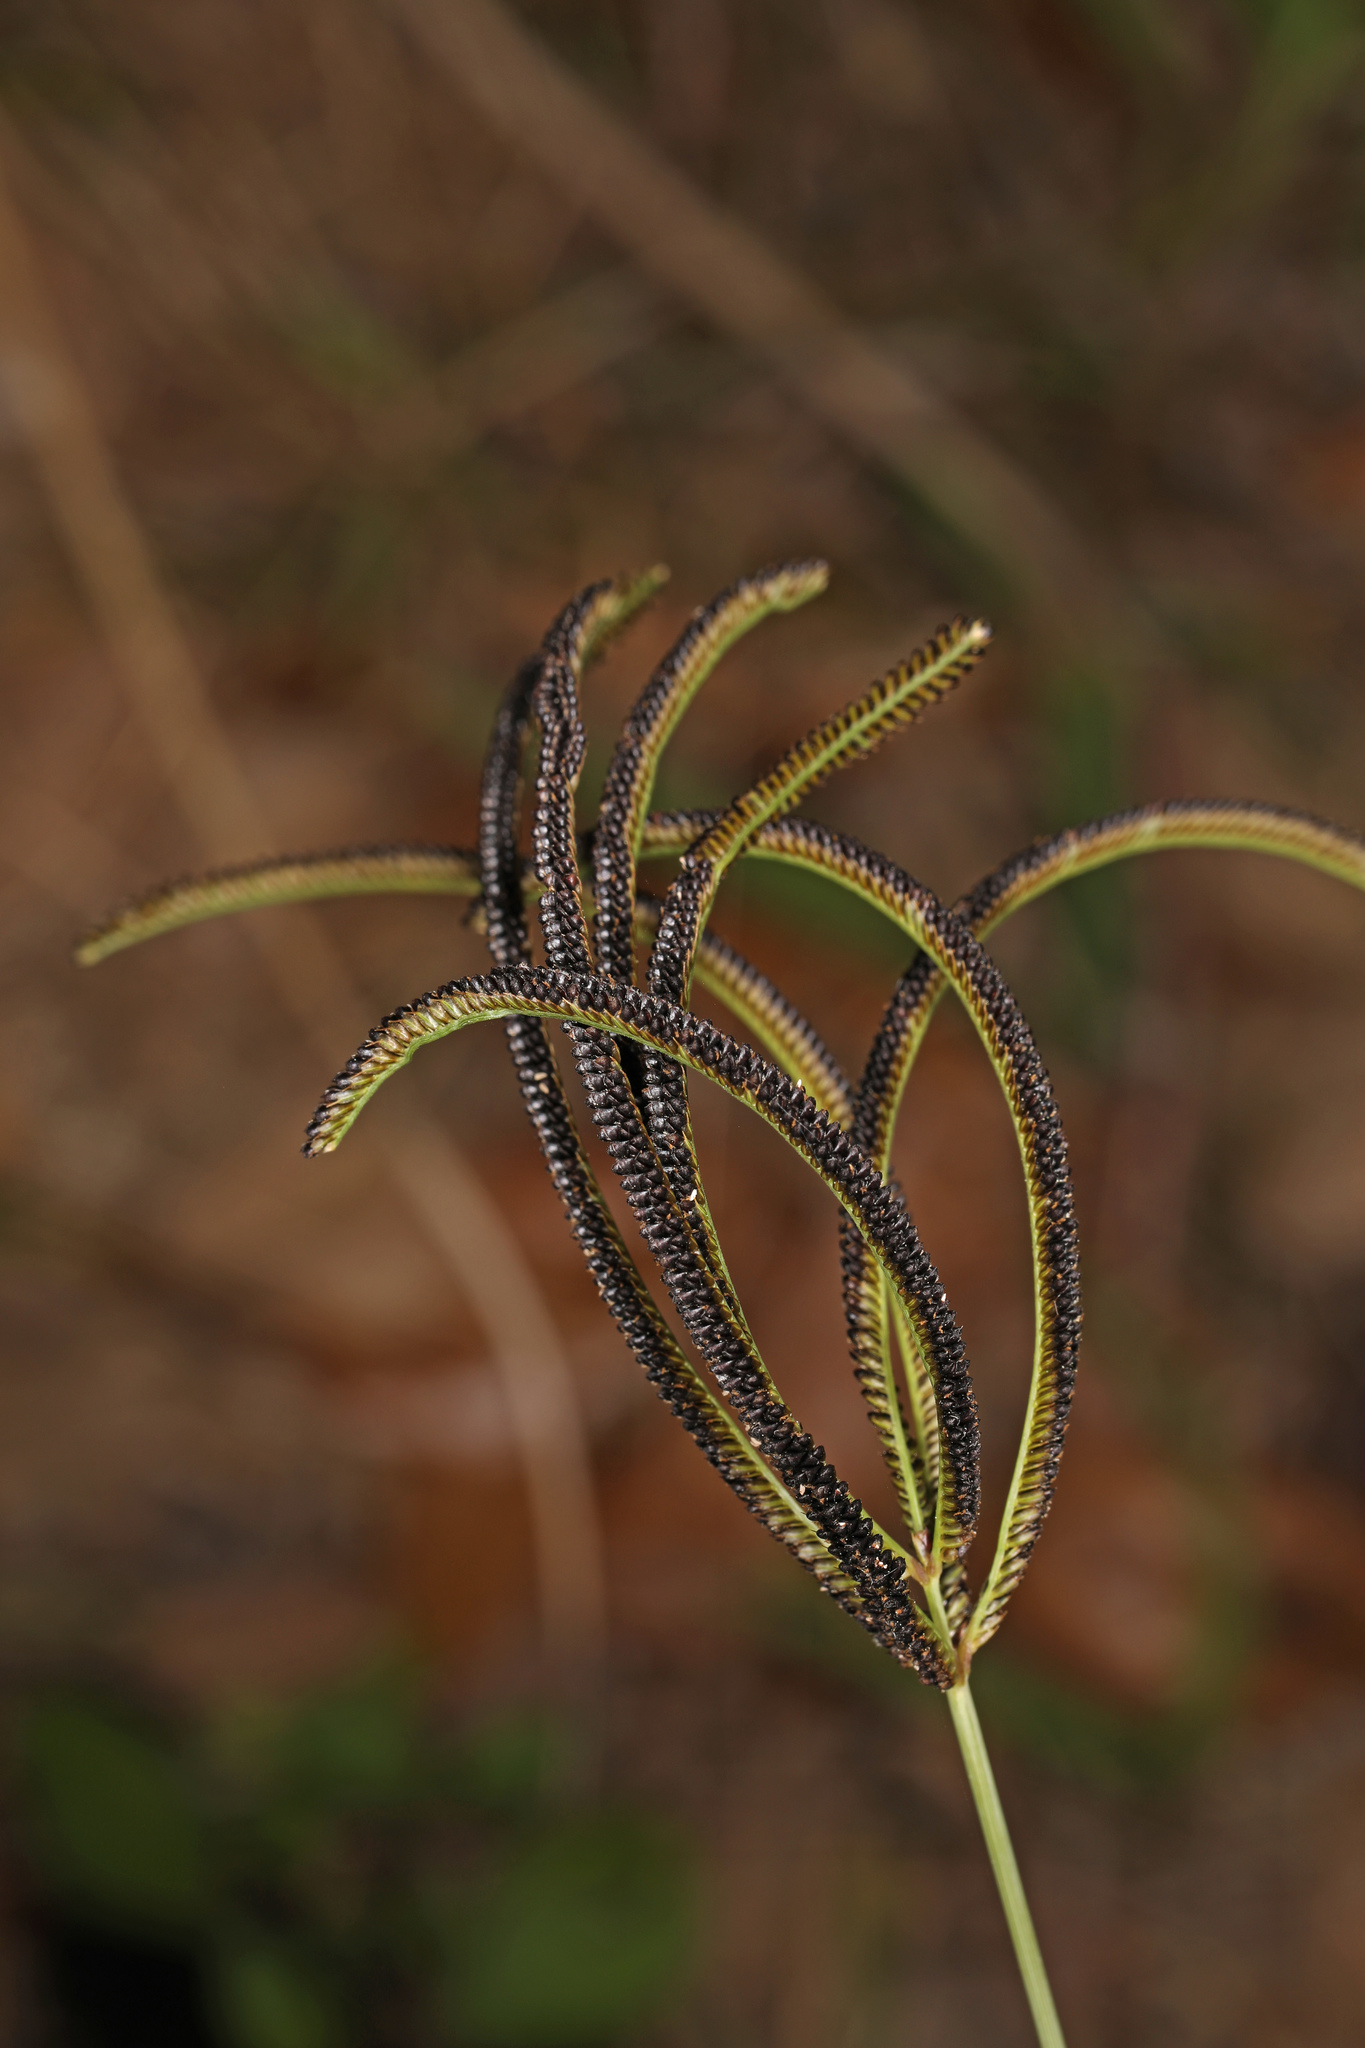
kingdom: Plantae
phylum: Tracheophyta
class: Liliopsida
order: Poales
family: Poaceae
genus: Eustachys
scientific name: Eustachys petraea
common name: Pinewoods fingergrass
